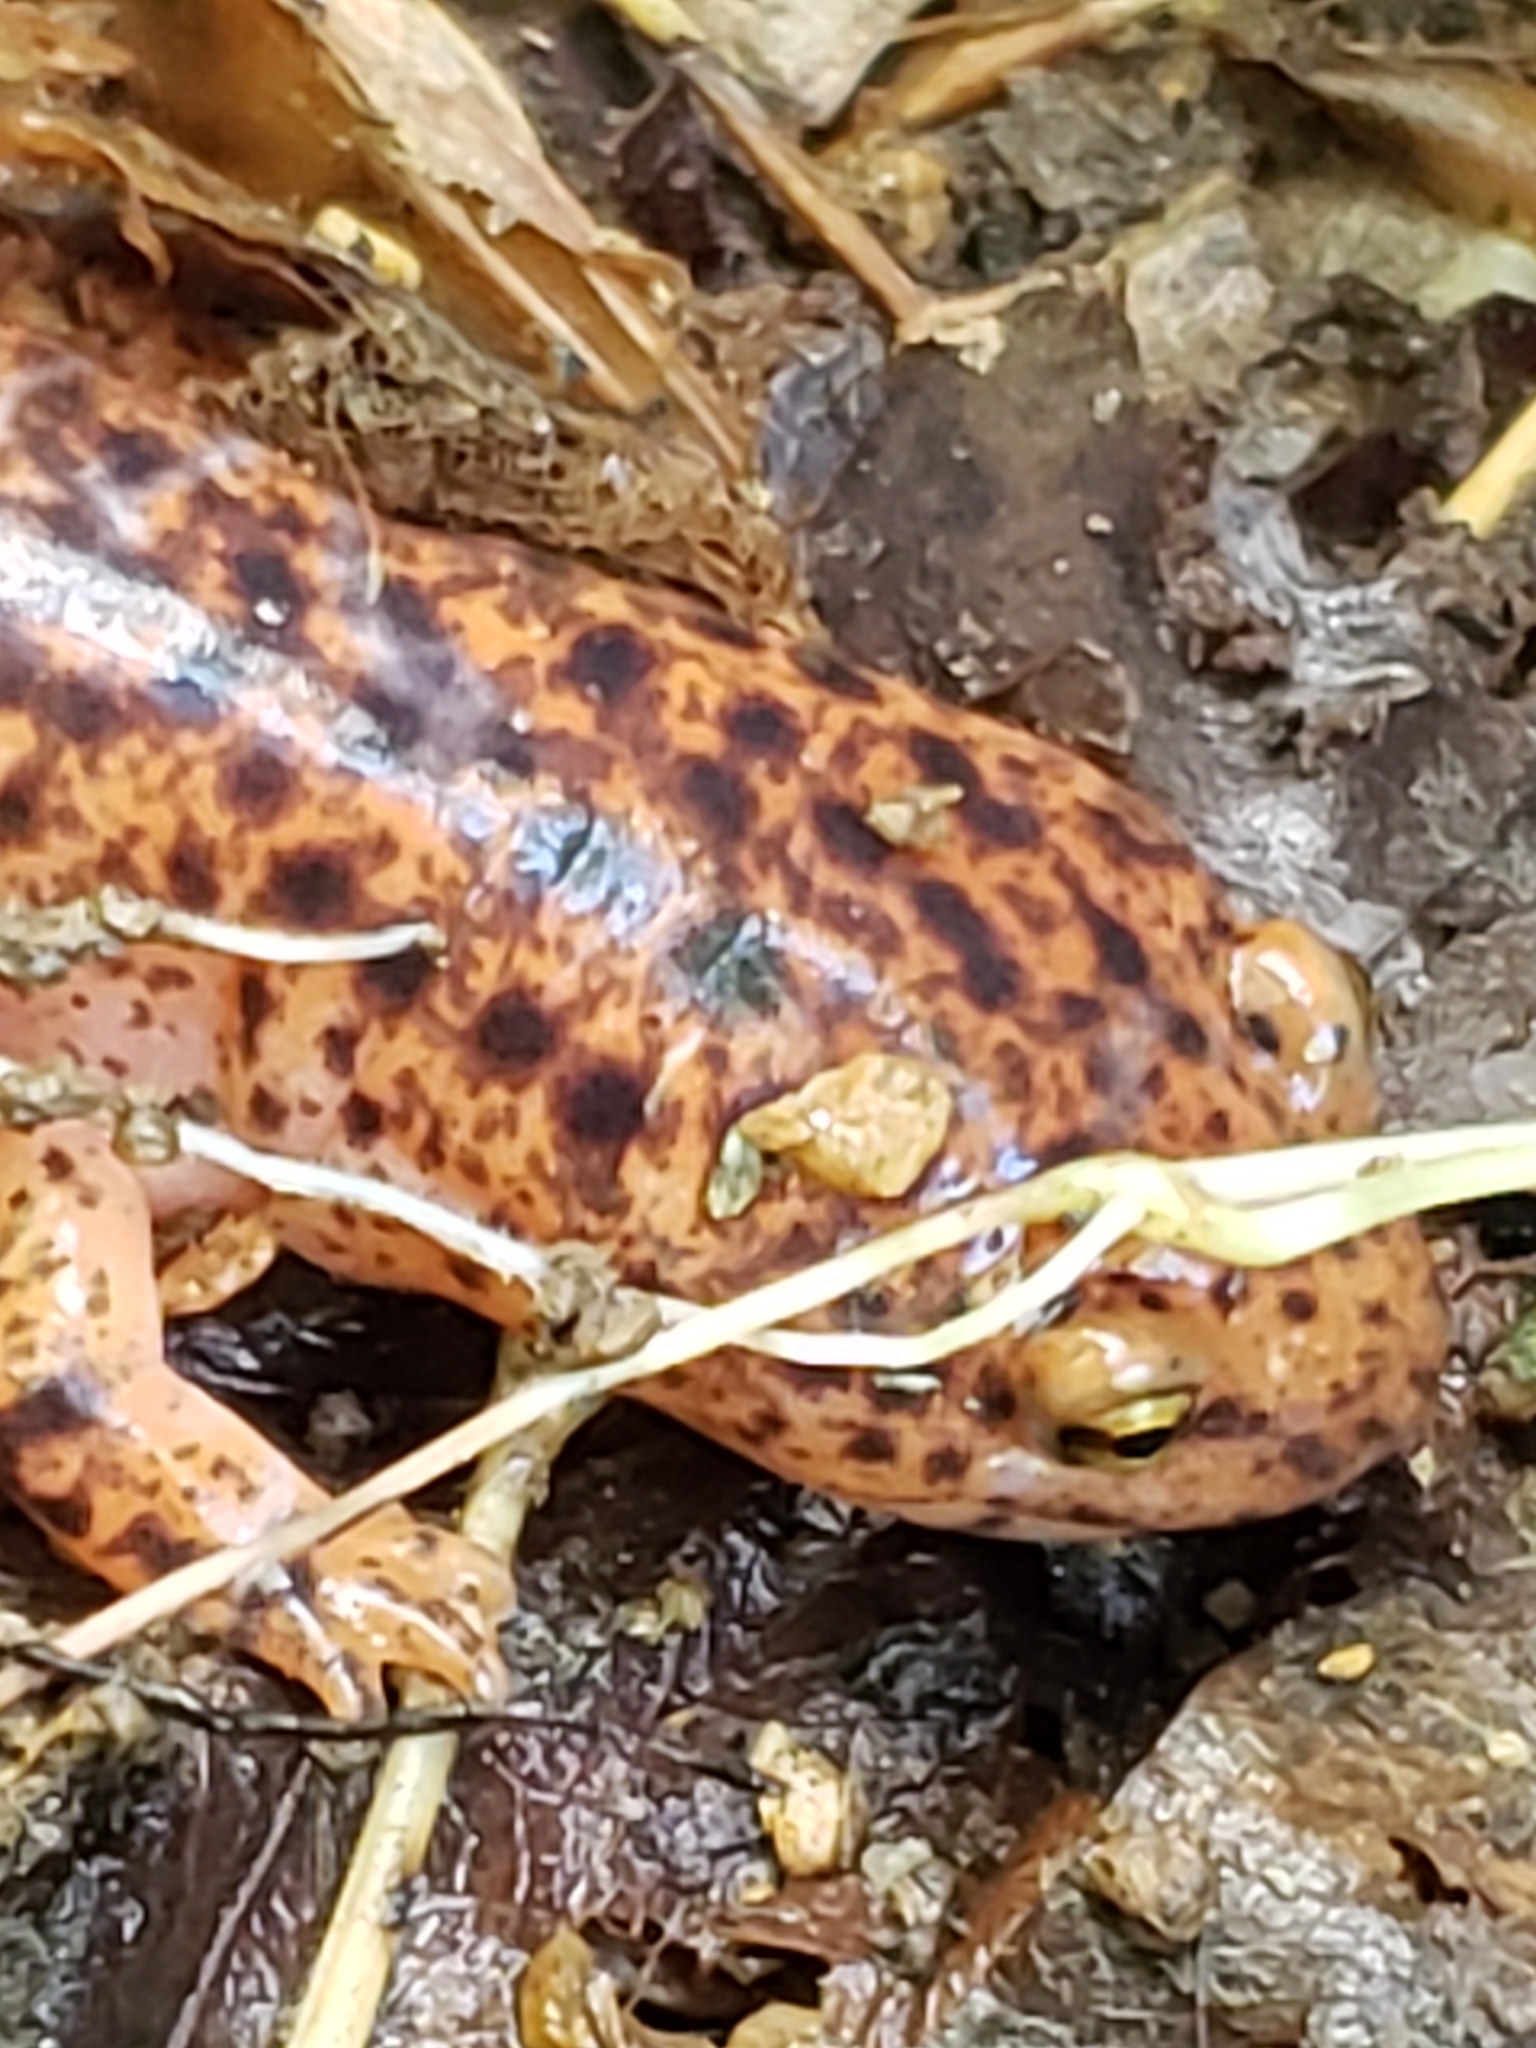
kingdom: Animalia
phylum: Chordata
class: Amphibia
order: Caudata
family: Plethodontidae
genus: Pseudotriton
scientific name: Pseudotriton ruber
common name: Red salamander
